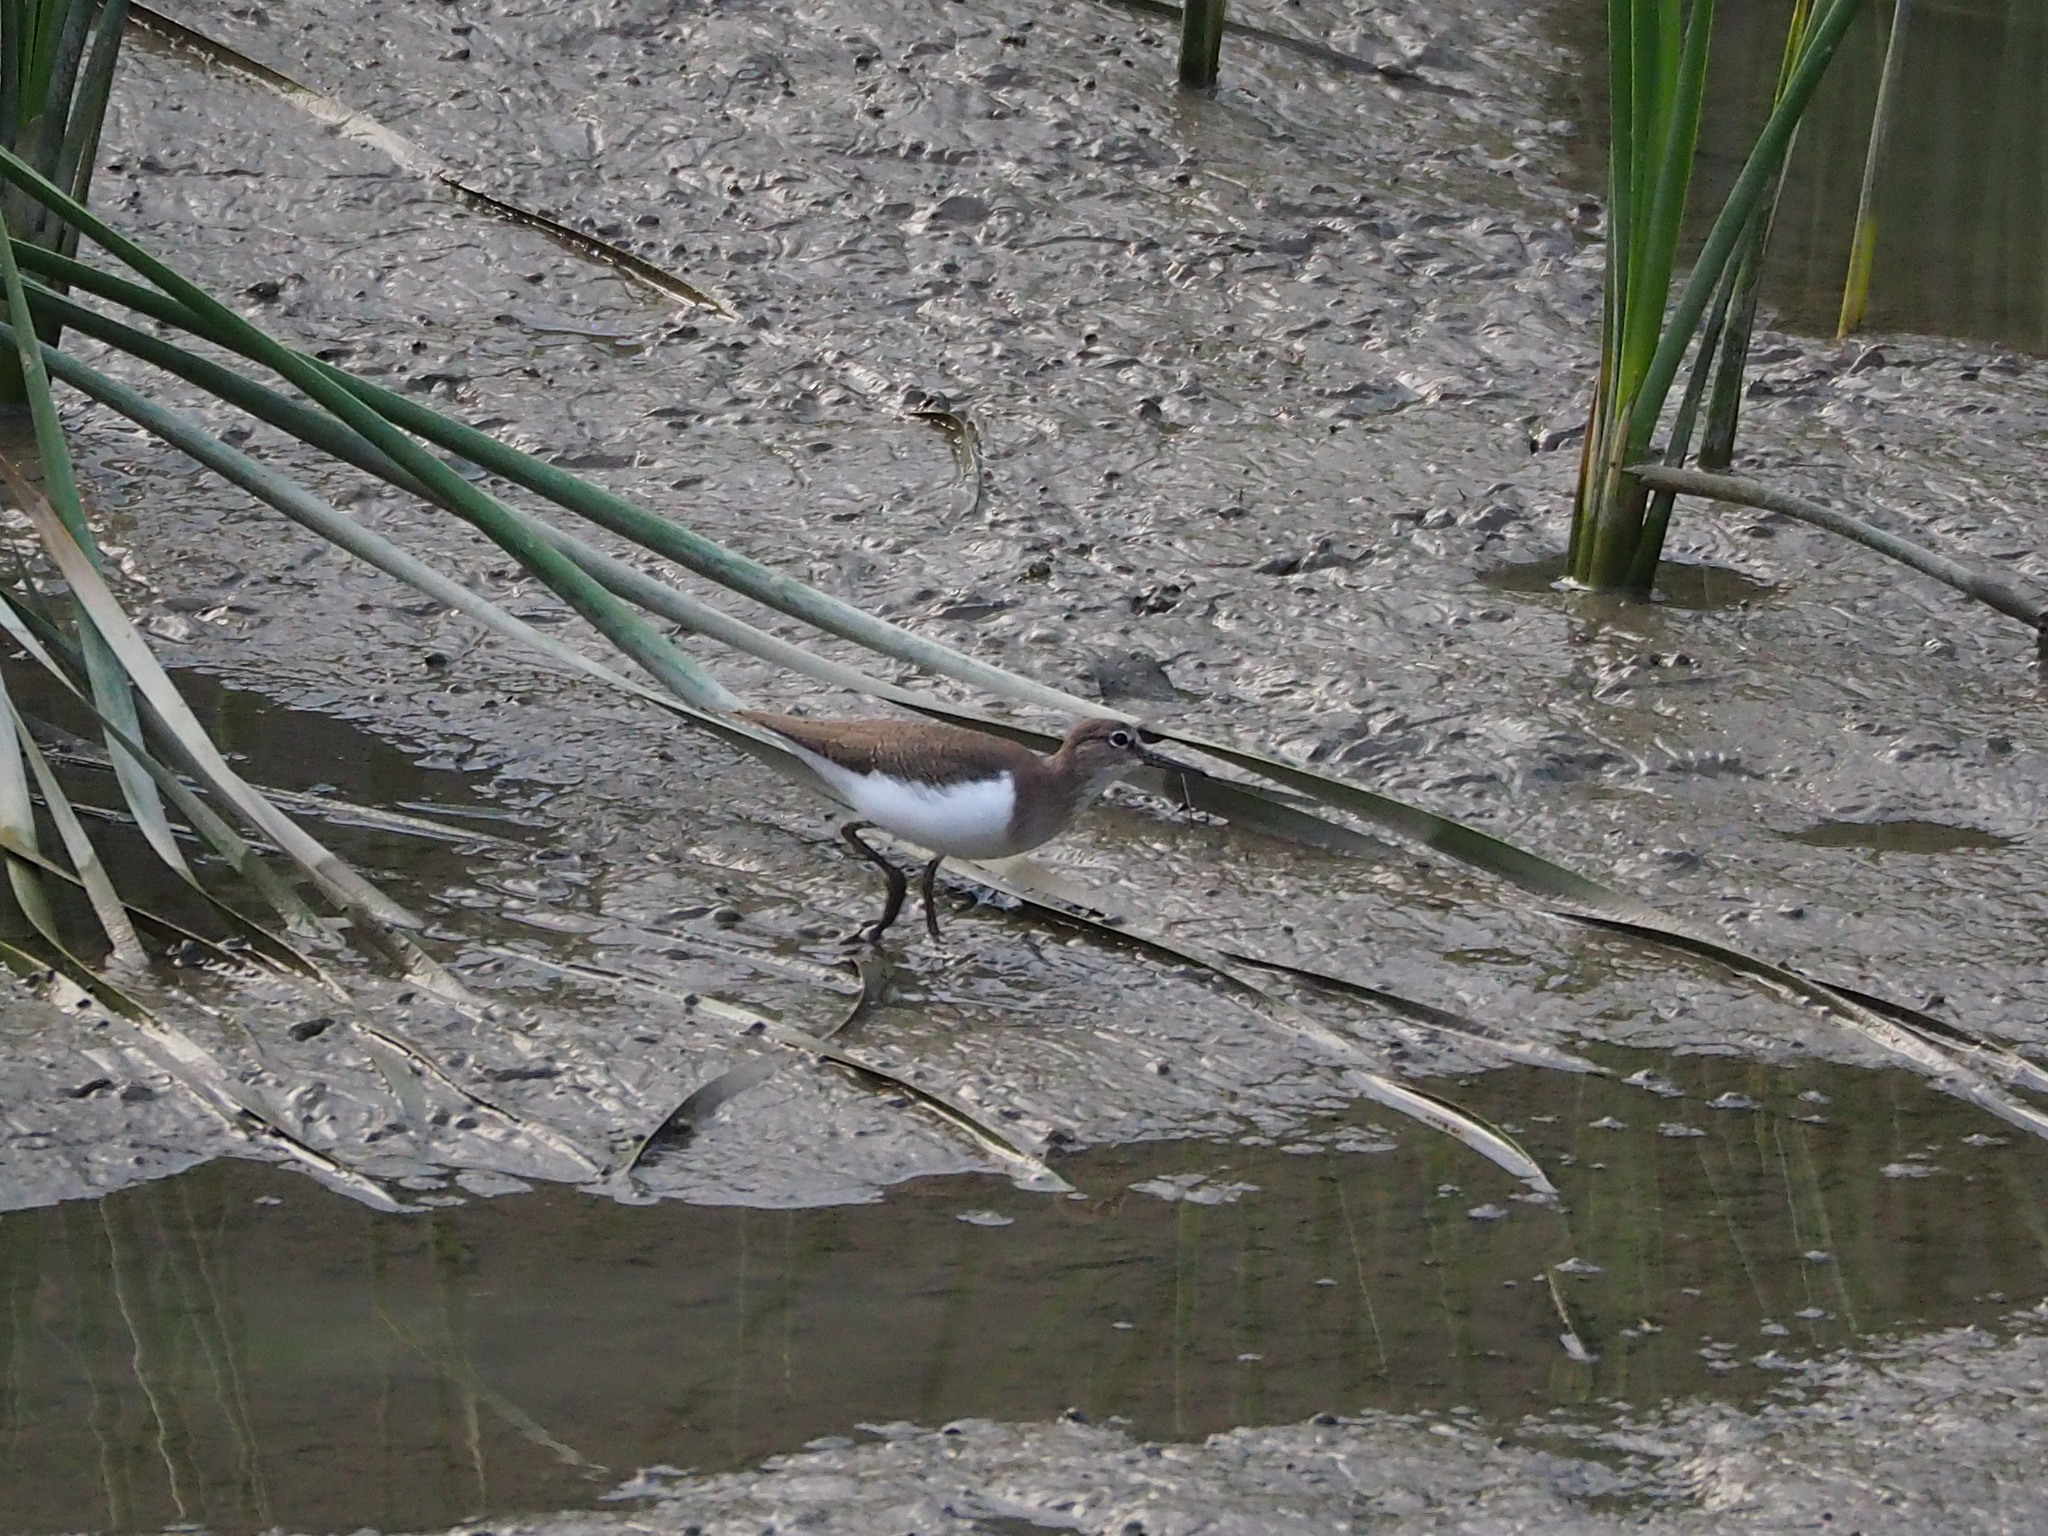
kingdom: Animalia
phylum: Chordata
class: Aves
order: Charadriiformes
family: Scolopacidae
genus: Actitis
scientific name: Actitis hypoleucos
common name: Common sandpiper
